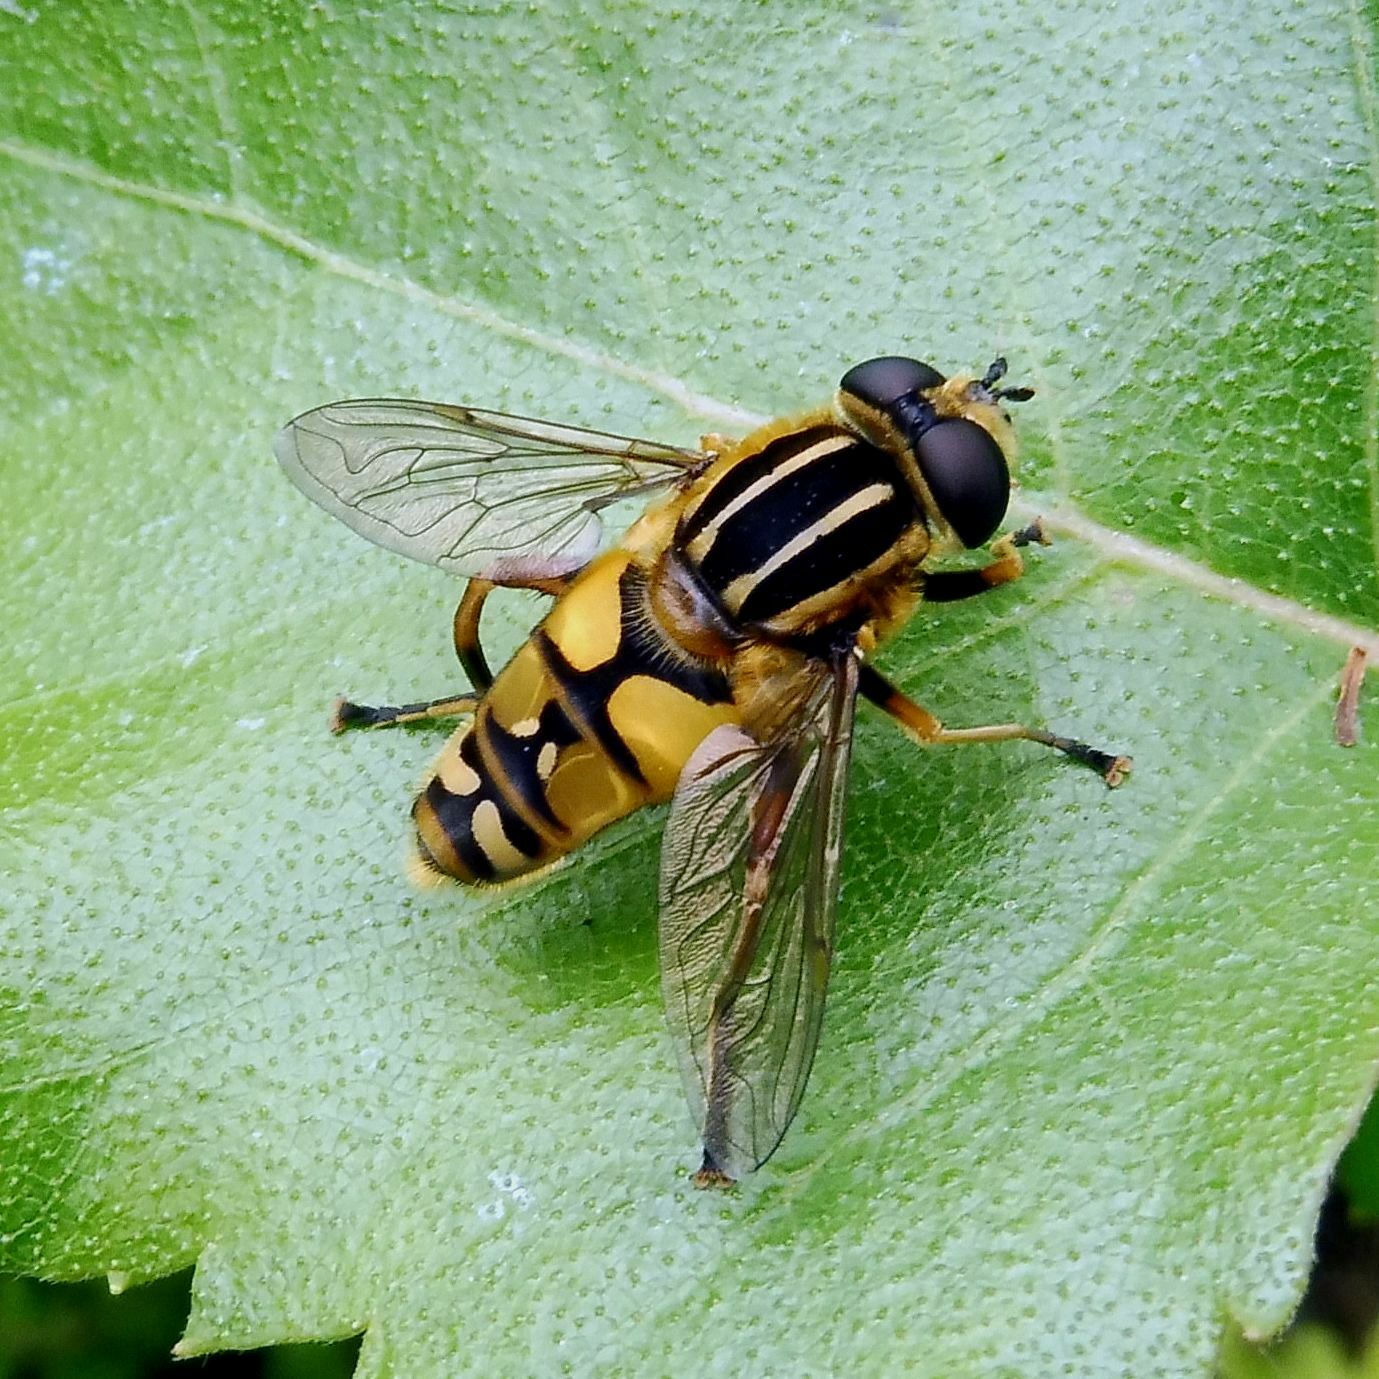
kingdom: Animalia
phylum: Arthropoda
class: Insecta
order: Diptera
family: Syrphidae
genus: Helophilus
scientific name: Helophilus pendulus
